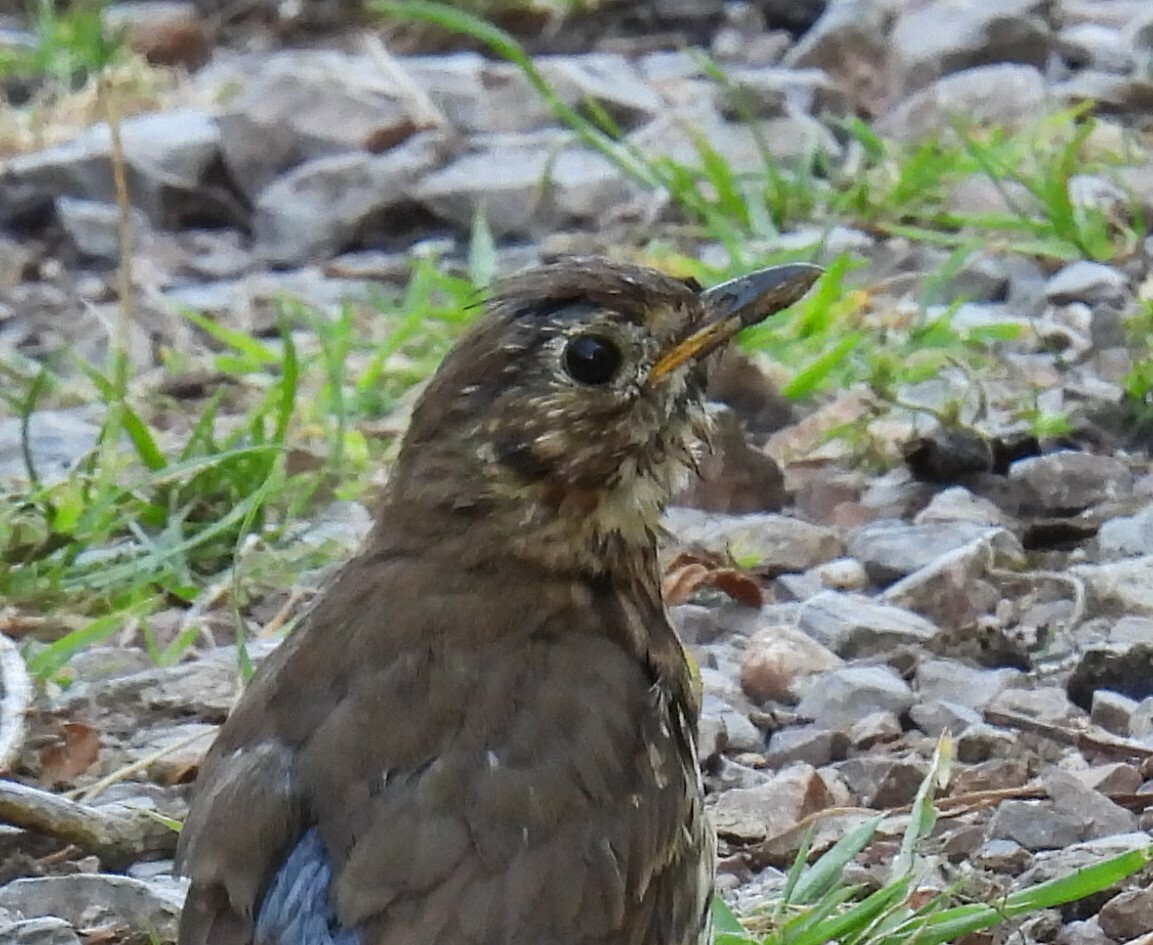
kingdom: Animalia
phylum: Chordata
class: Aves
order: Passeriformes
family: Turdidae
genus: Turdus
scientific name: Turdus merula
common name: Common blackbird
